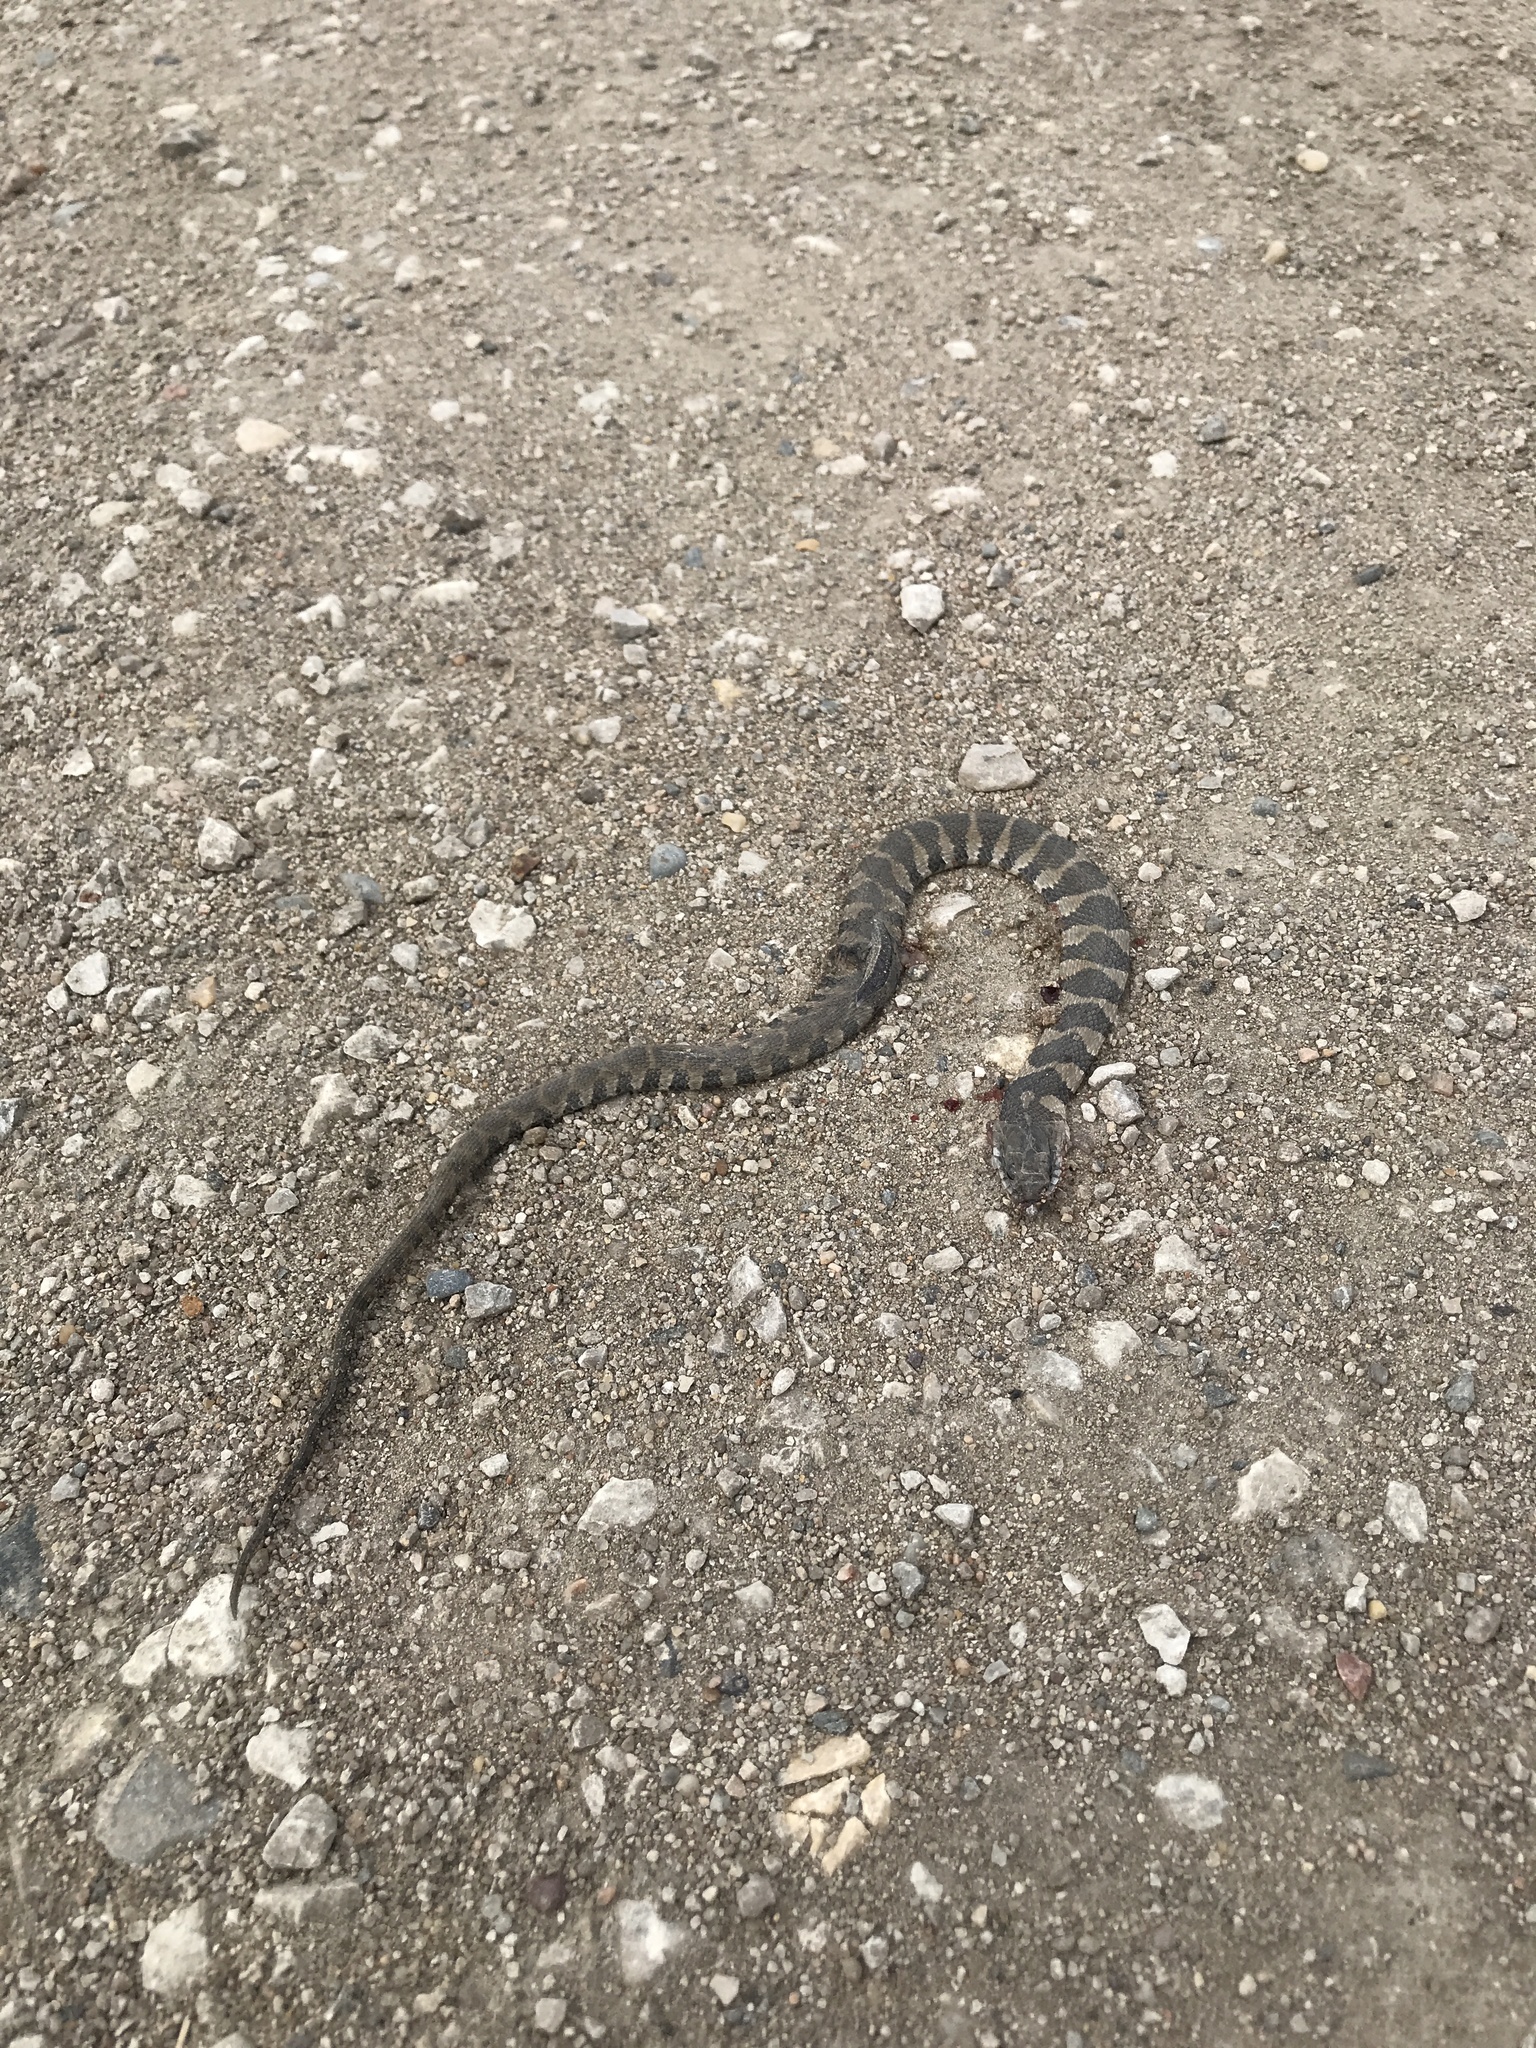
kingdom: Animalia
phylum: Chordata
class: Squamata
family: Colubridae
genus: Nerodia
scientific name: Nerodia sipedon
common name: Northern water snake
